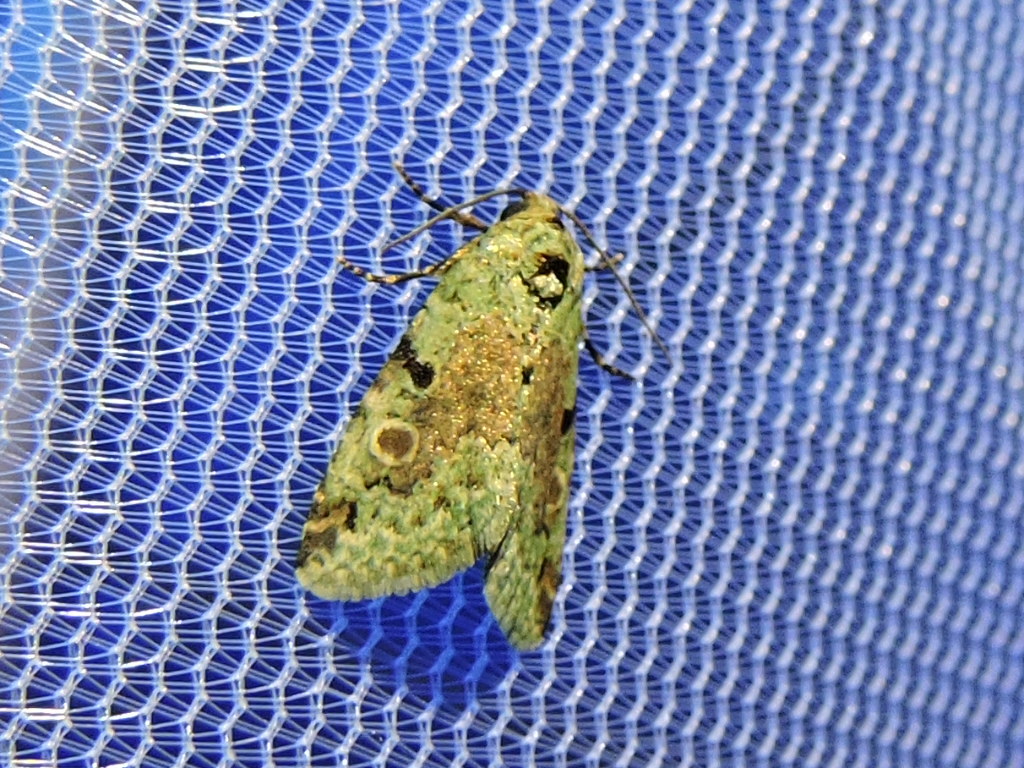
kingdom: Animalia
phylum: Arthropoda
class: Insecta
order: Lepidoptera
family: Noctuidae
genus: Maliattha
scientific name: Maliattha concinnimacula
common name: Red-spotted glyph
